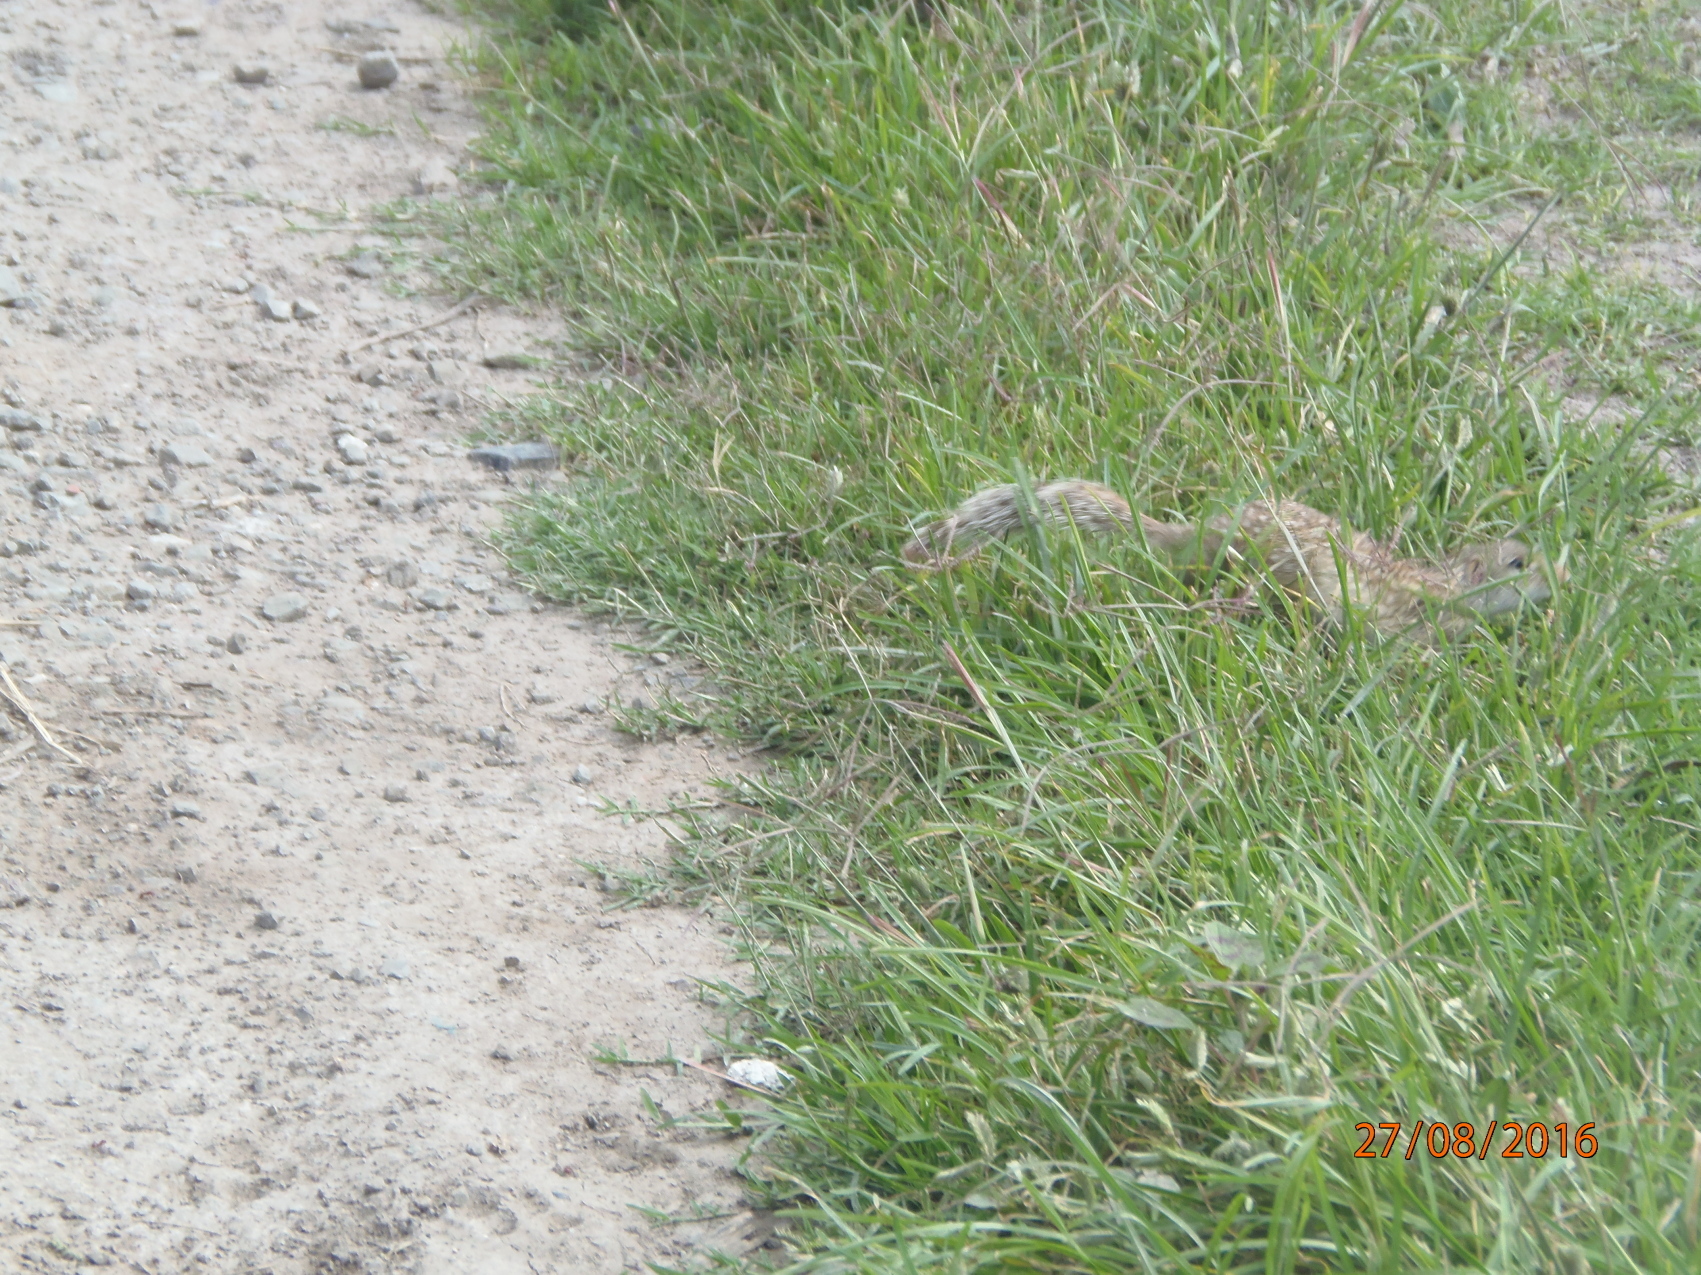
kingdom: Animalia
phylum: Chordata
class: Mammalia
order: Rodentia
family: Sciuridae
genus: Ictidomys
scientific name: Ictidomys mexicanus
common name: Mexican ground squirrel
